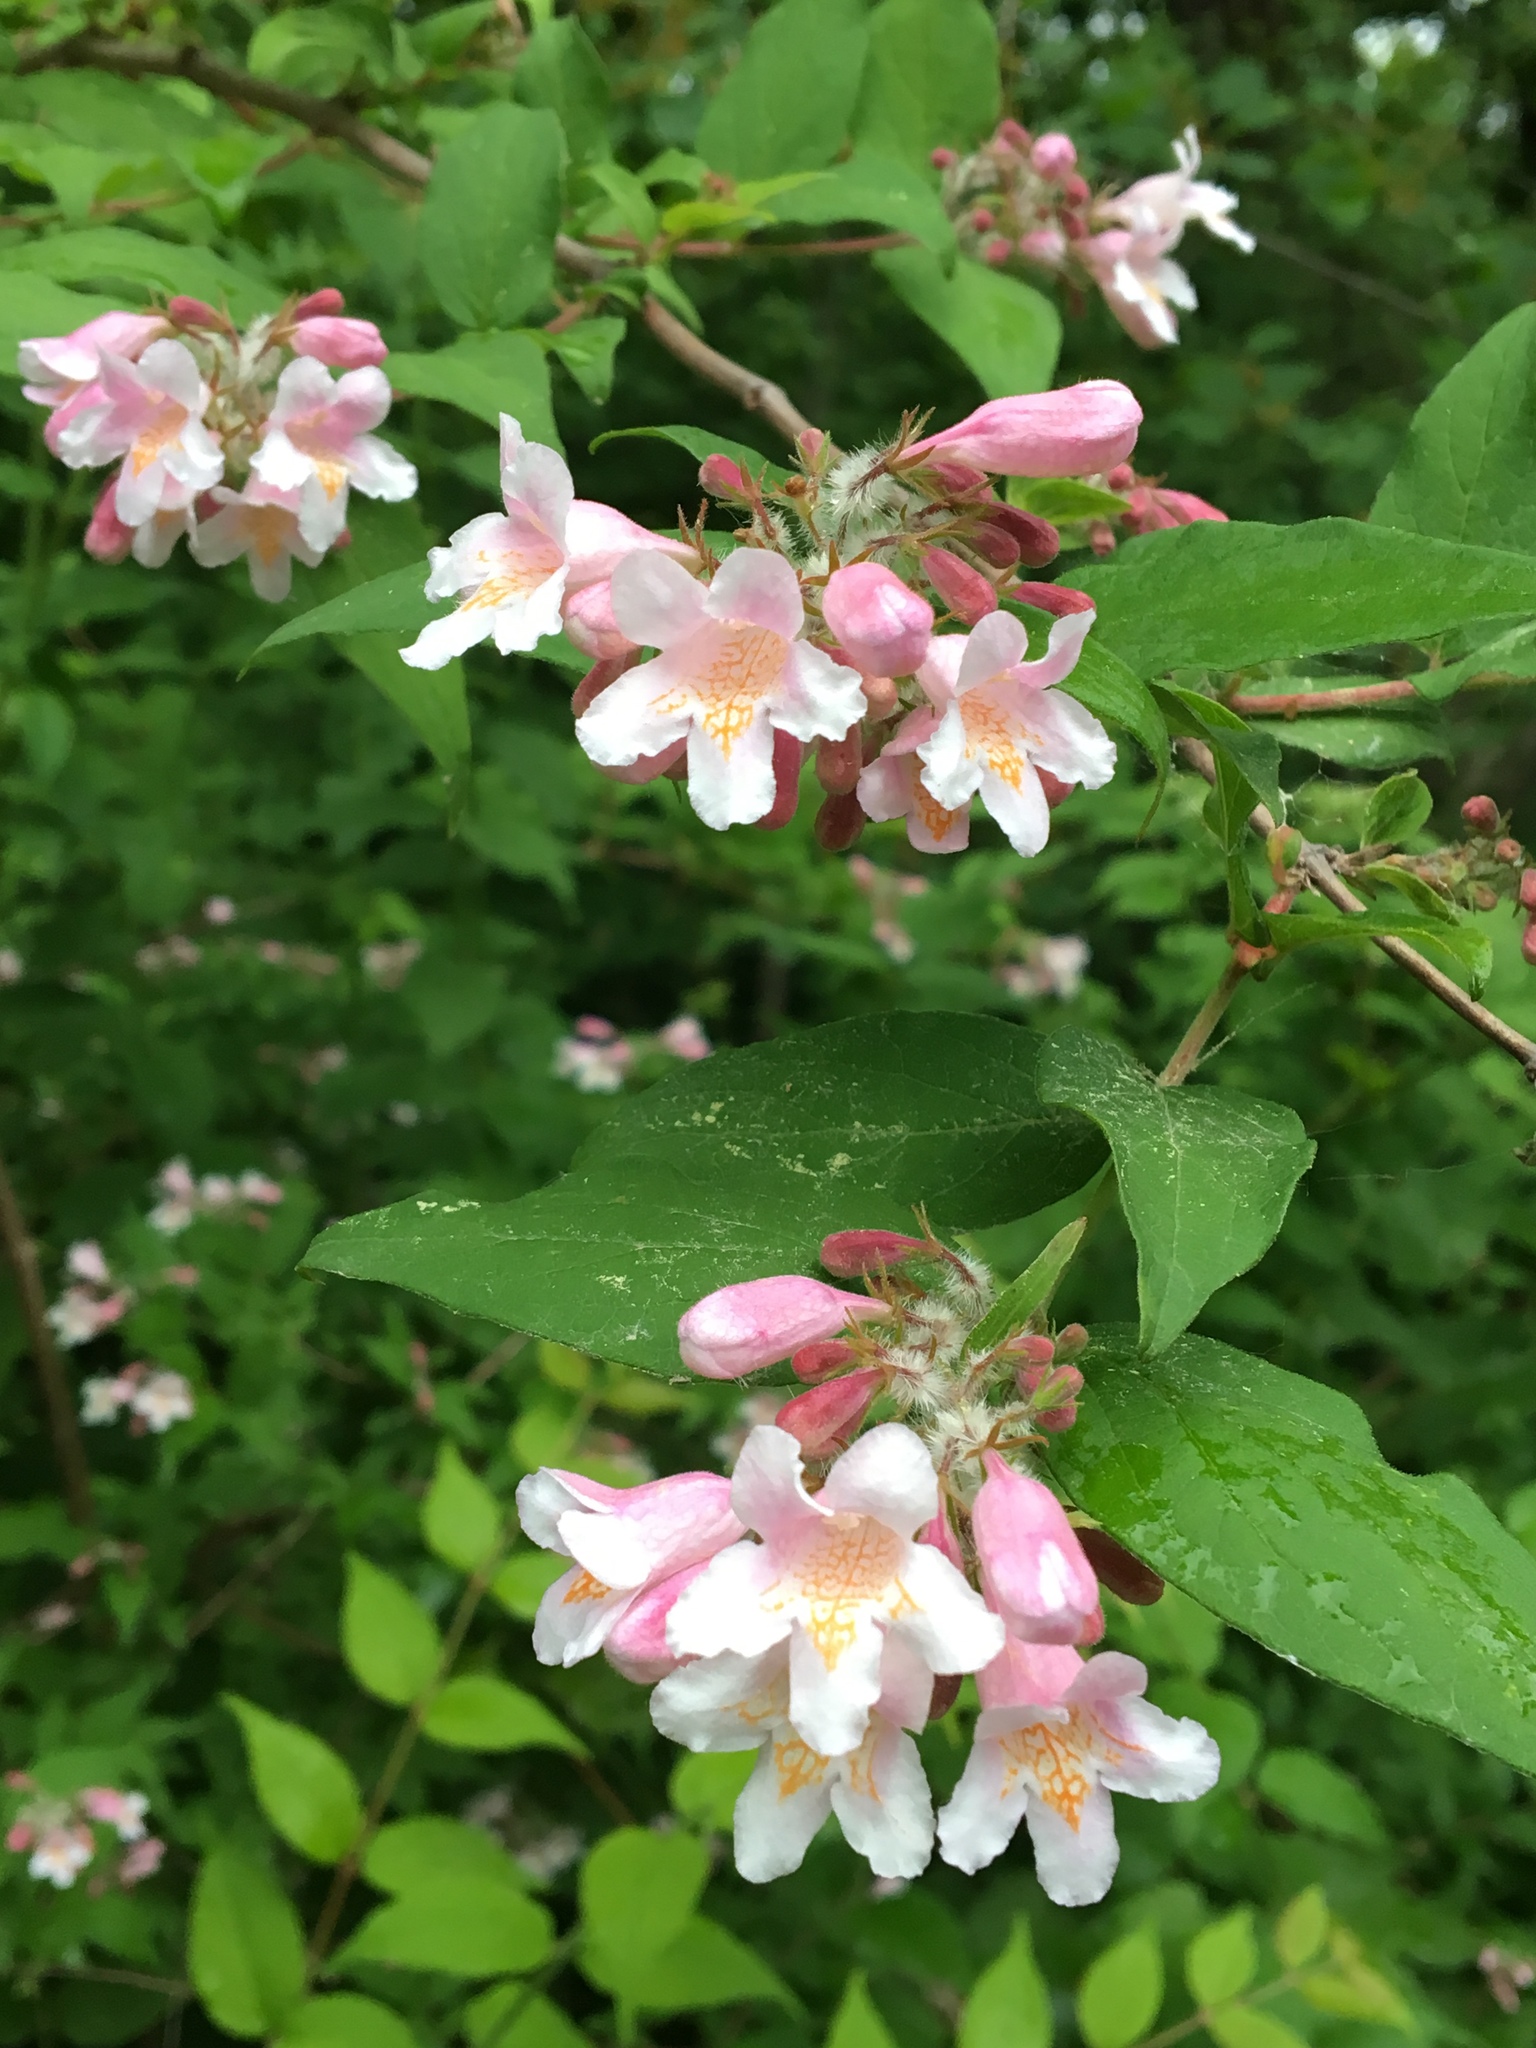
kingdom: Plantae
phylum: Tracheophyta
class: Magnoliopsida
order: Dipsacales
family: Caprifoliaceae
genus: Kolkwitzia
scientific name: Kolkwitzia amabilis
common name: Beautybush
